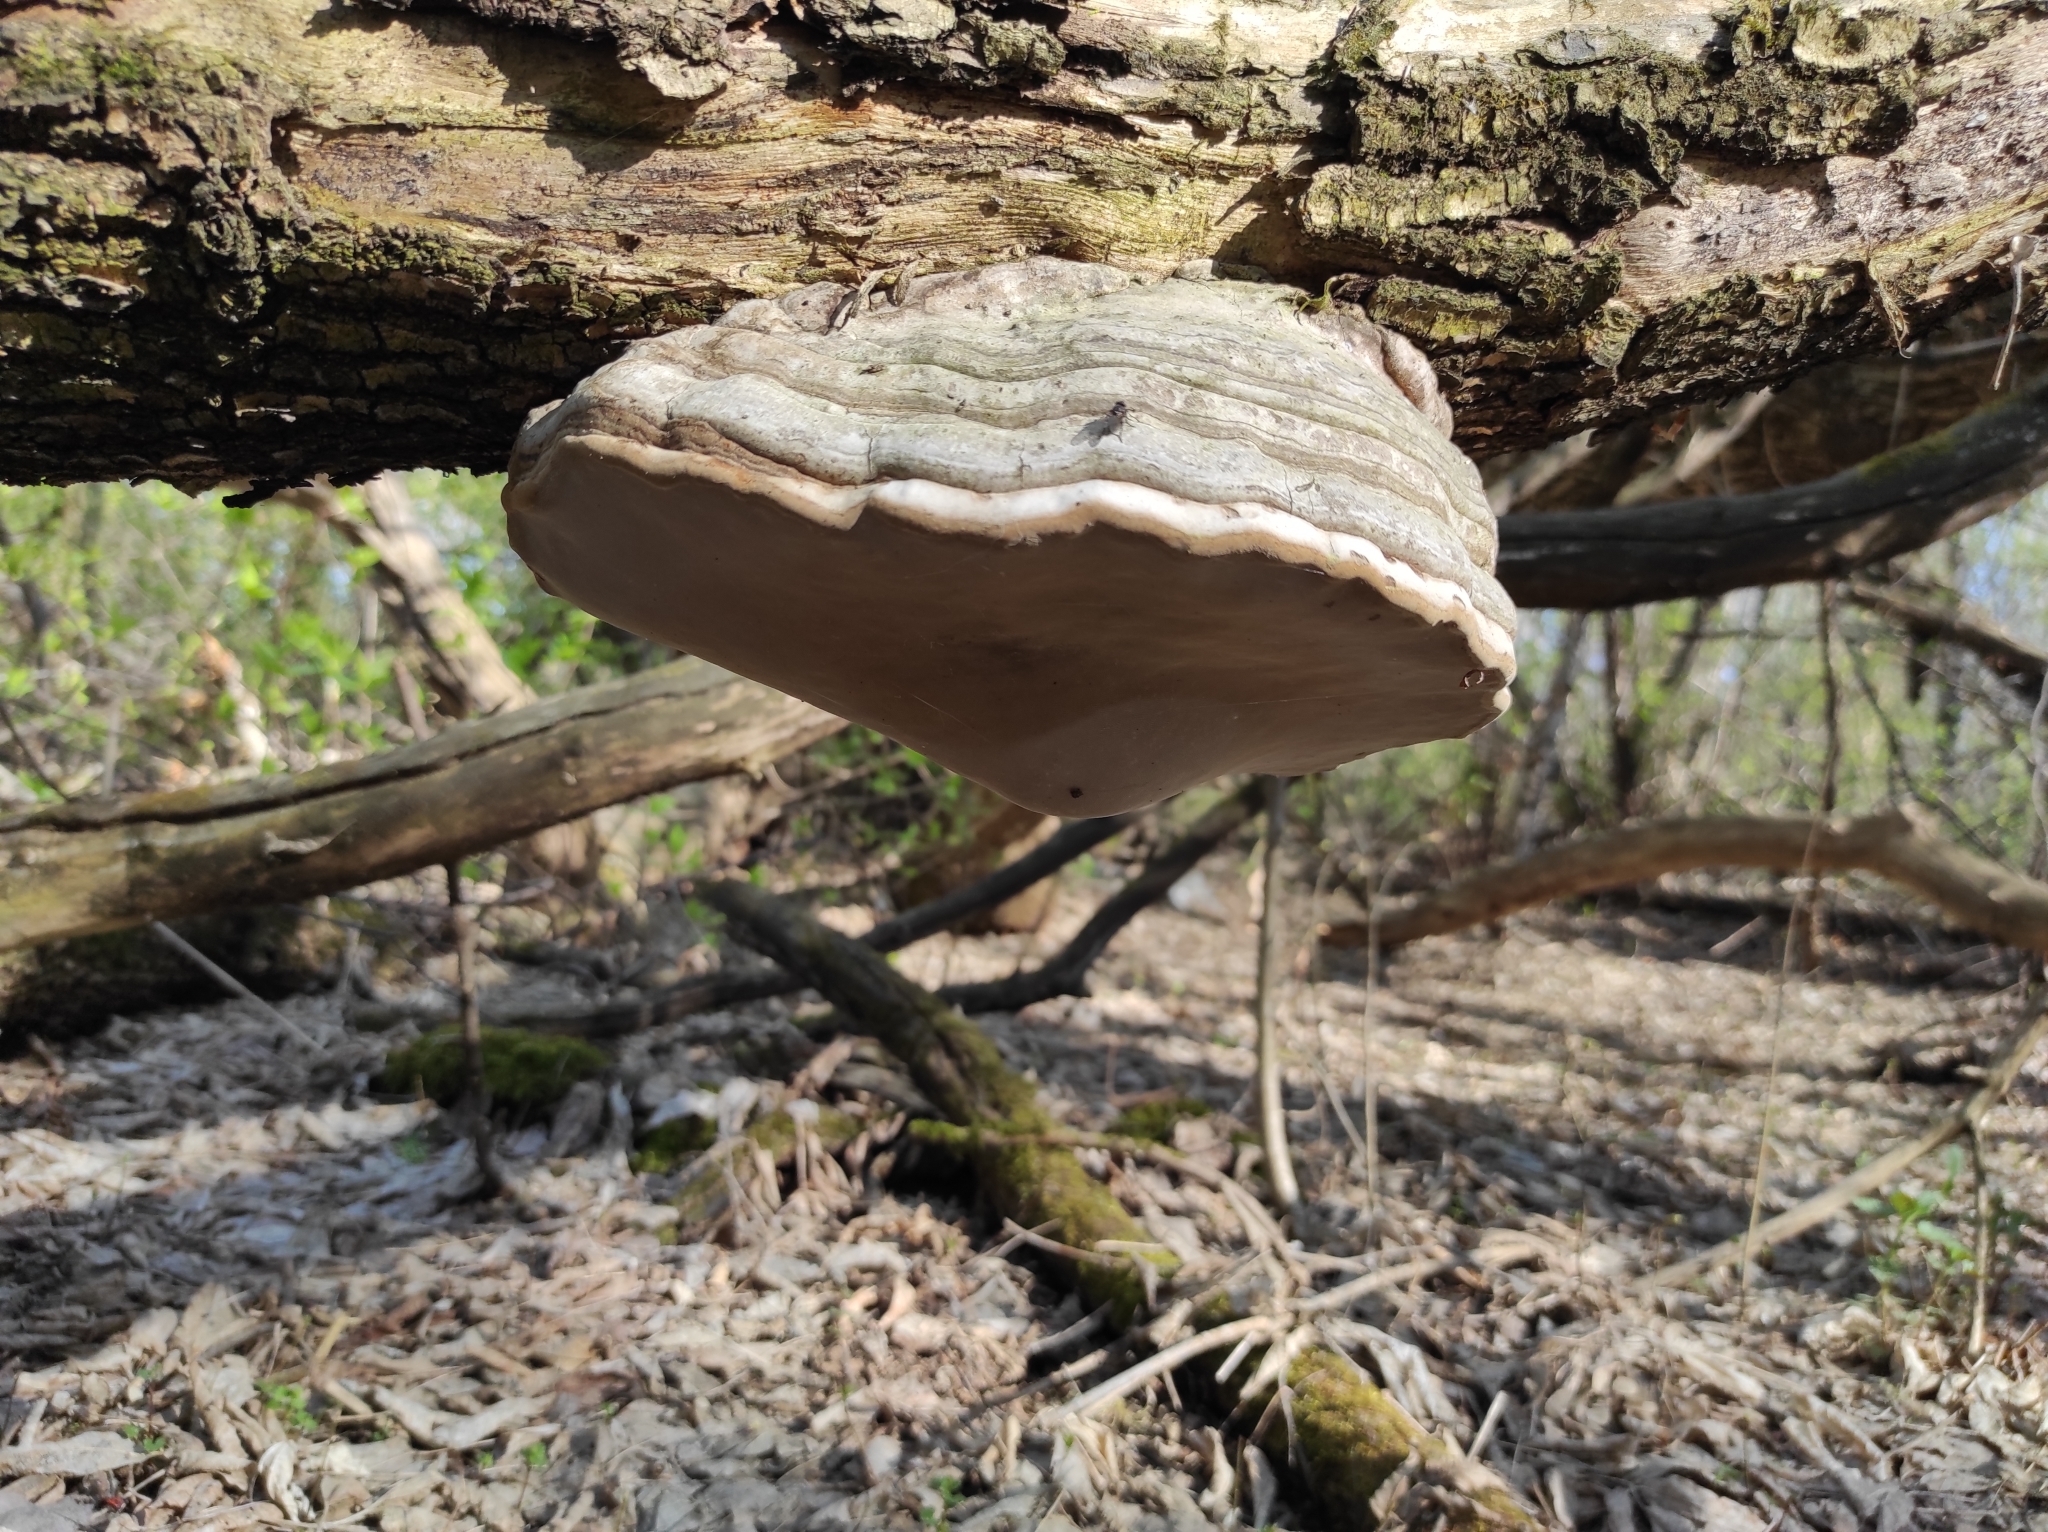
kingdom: Fungi
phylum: Basidiomycota
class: Agaricomycetes
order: Polyporales
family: Polyporaceae
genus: Fomes
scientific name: Fomes fomentarius
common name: Hoof fungus
